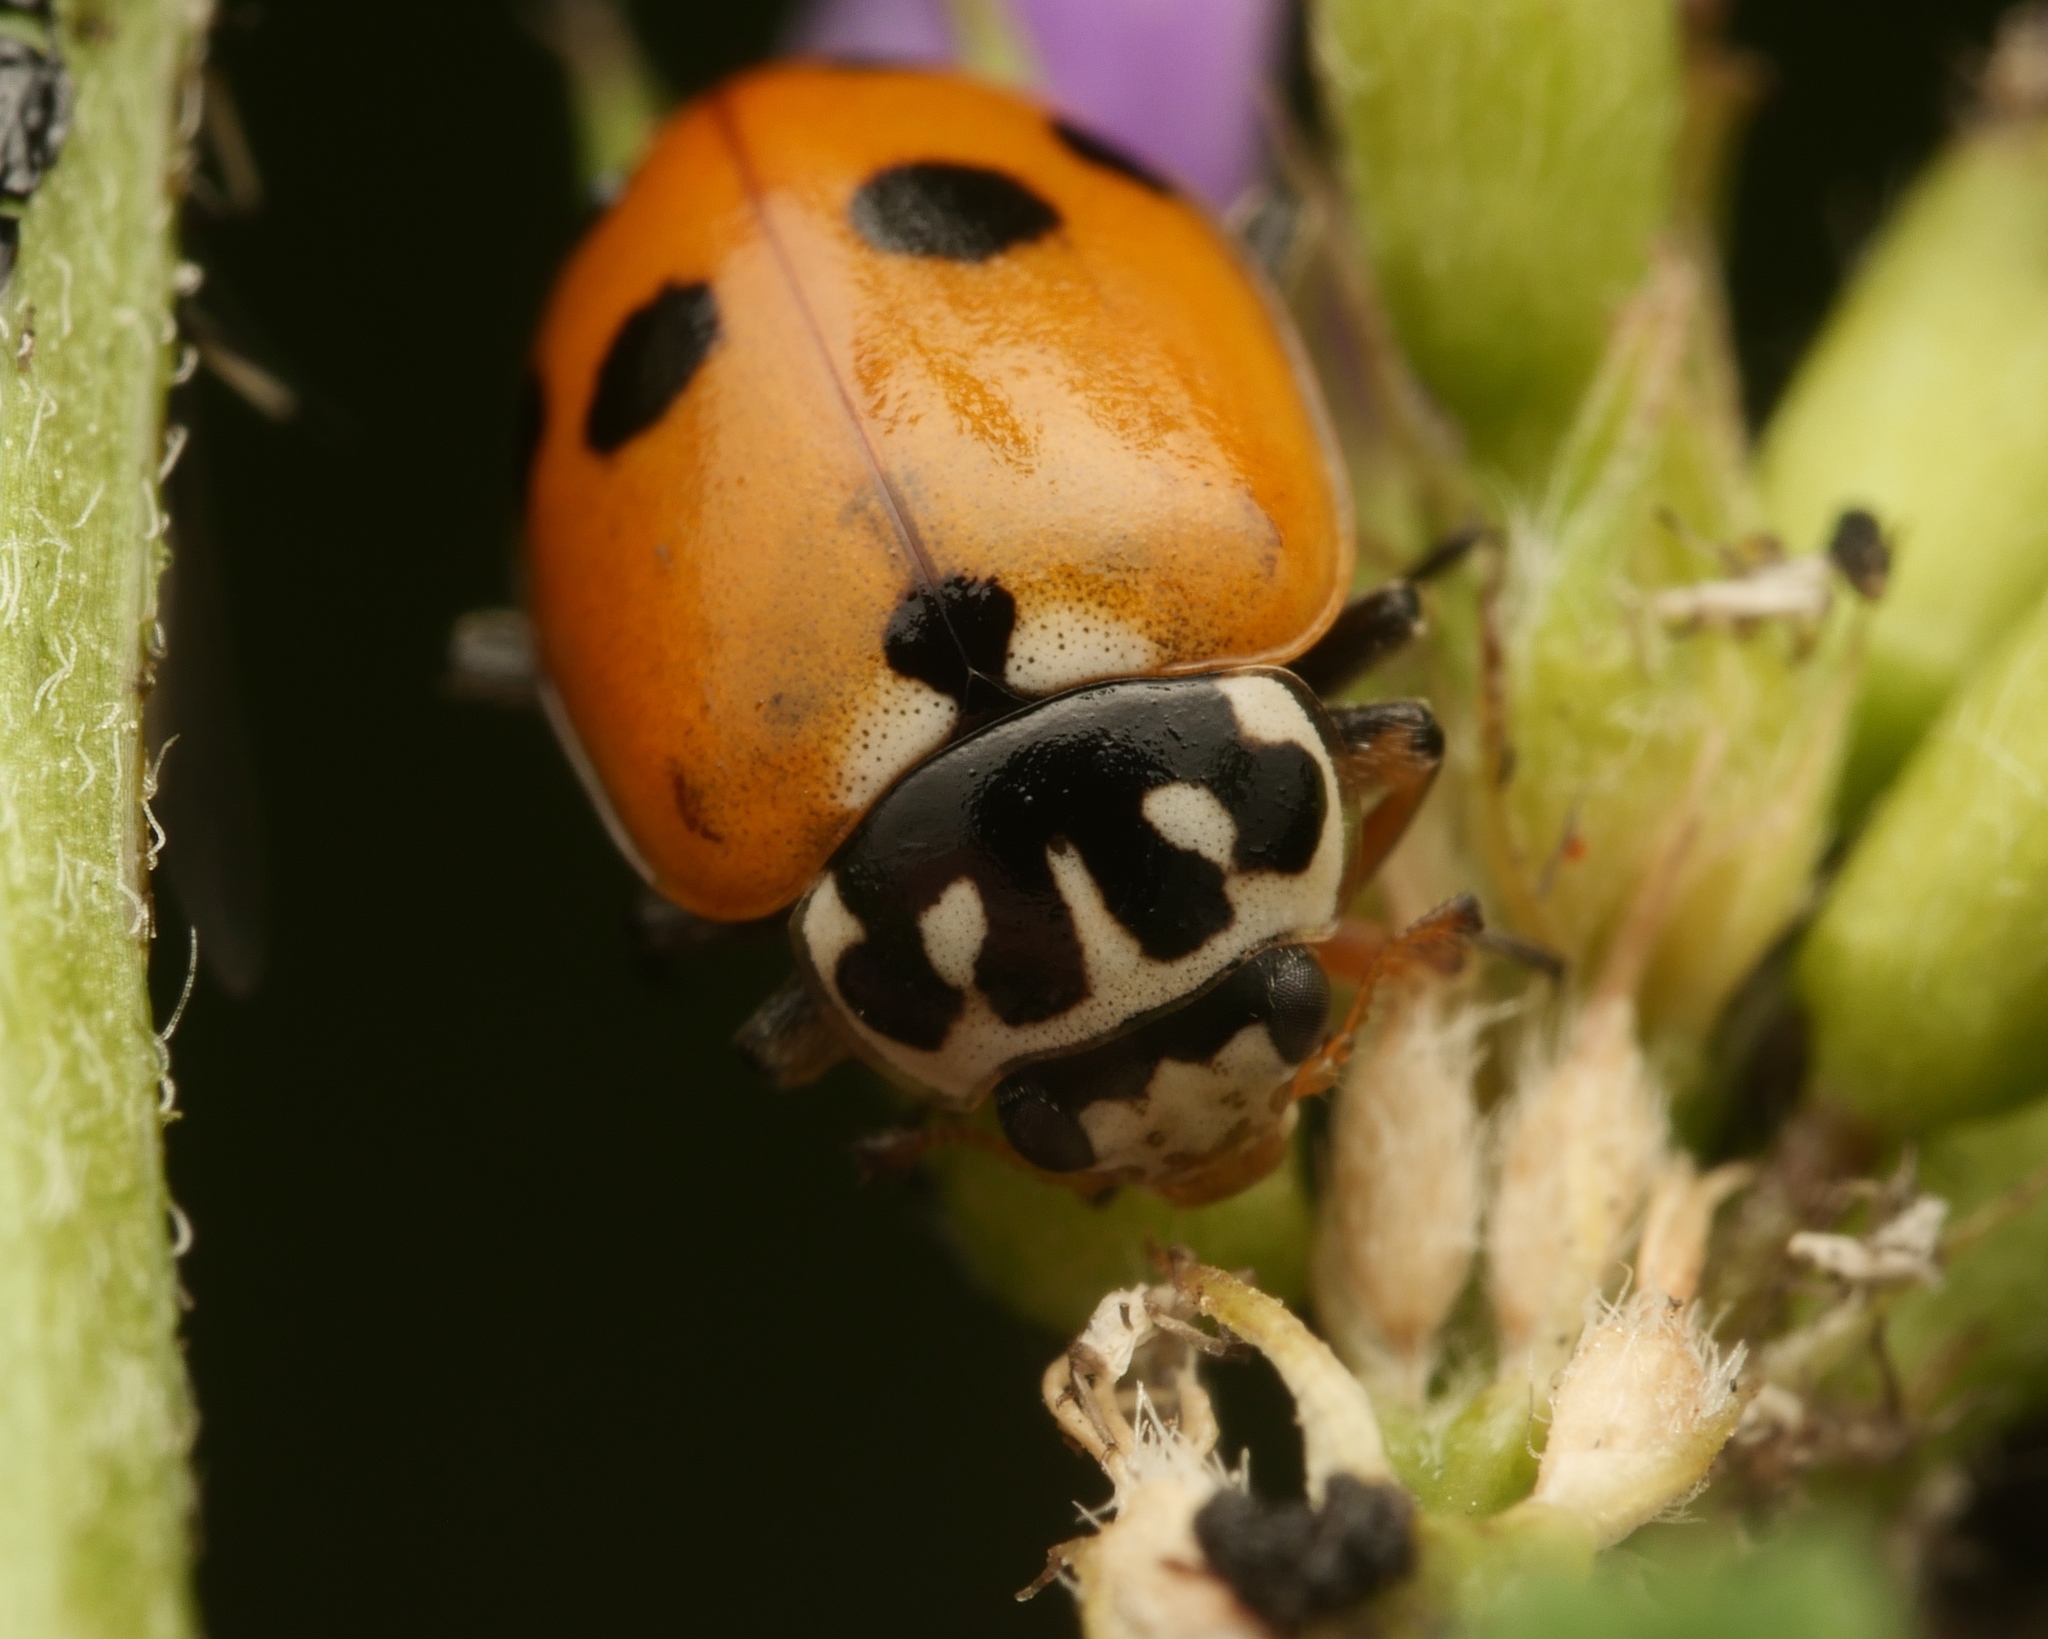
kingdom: Animalia
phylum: Arthropoda
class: Insecta
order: Coleoptera
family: Coccinellidae
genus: Hippodamia
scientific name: Hippodamia variegata
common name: Ladybird beetle
